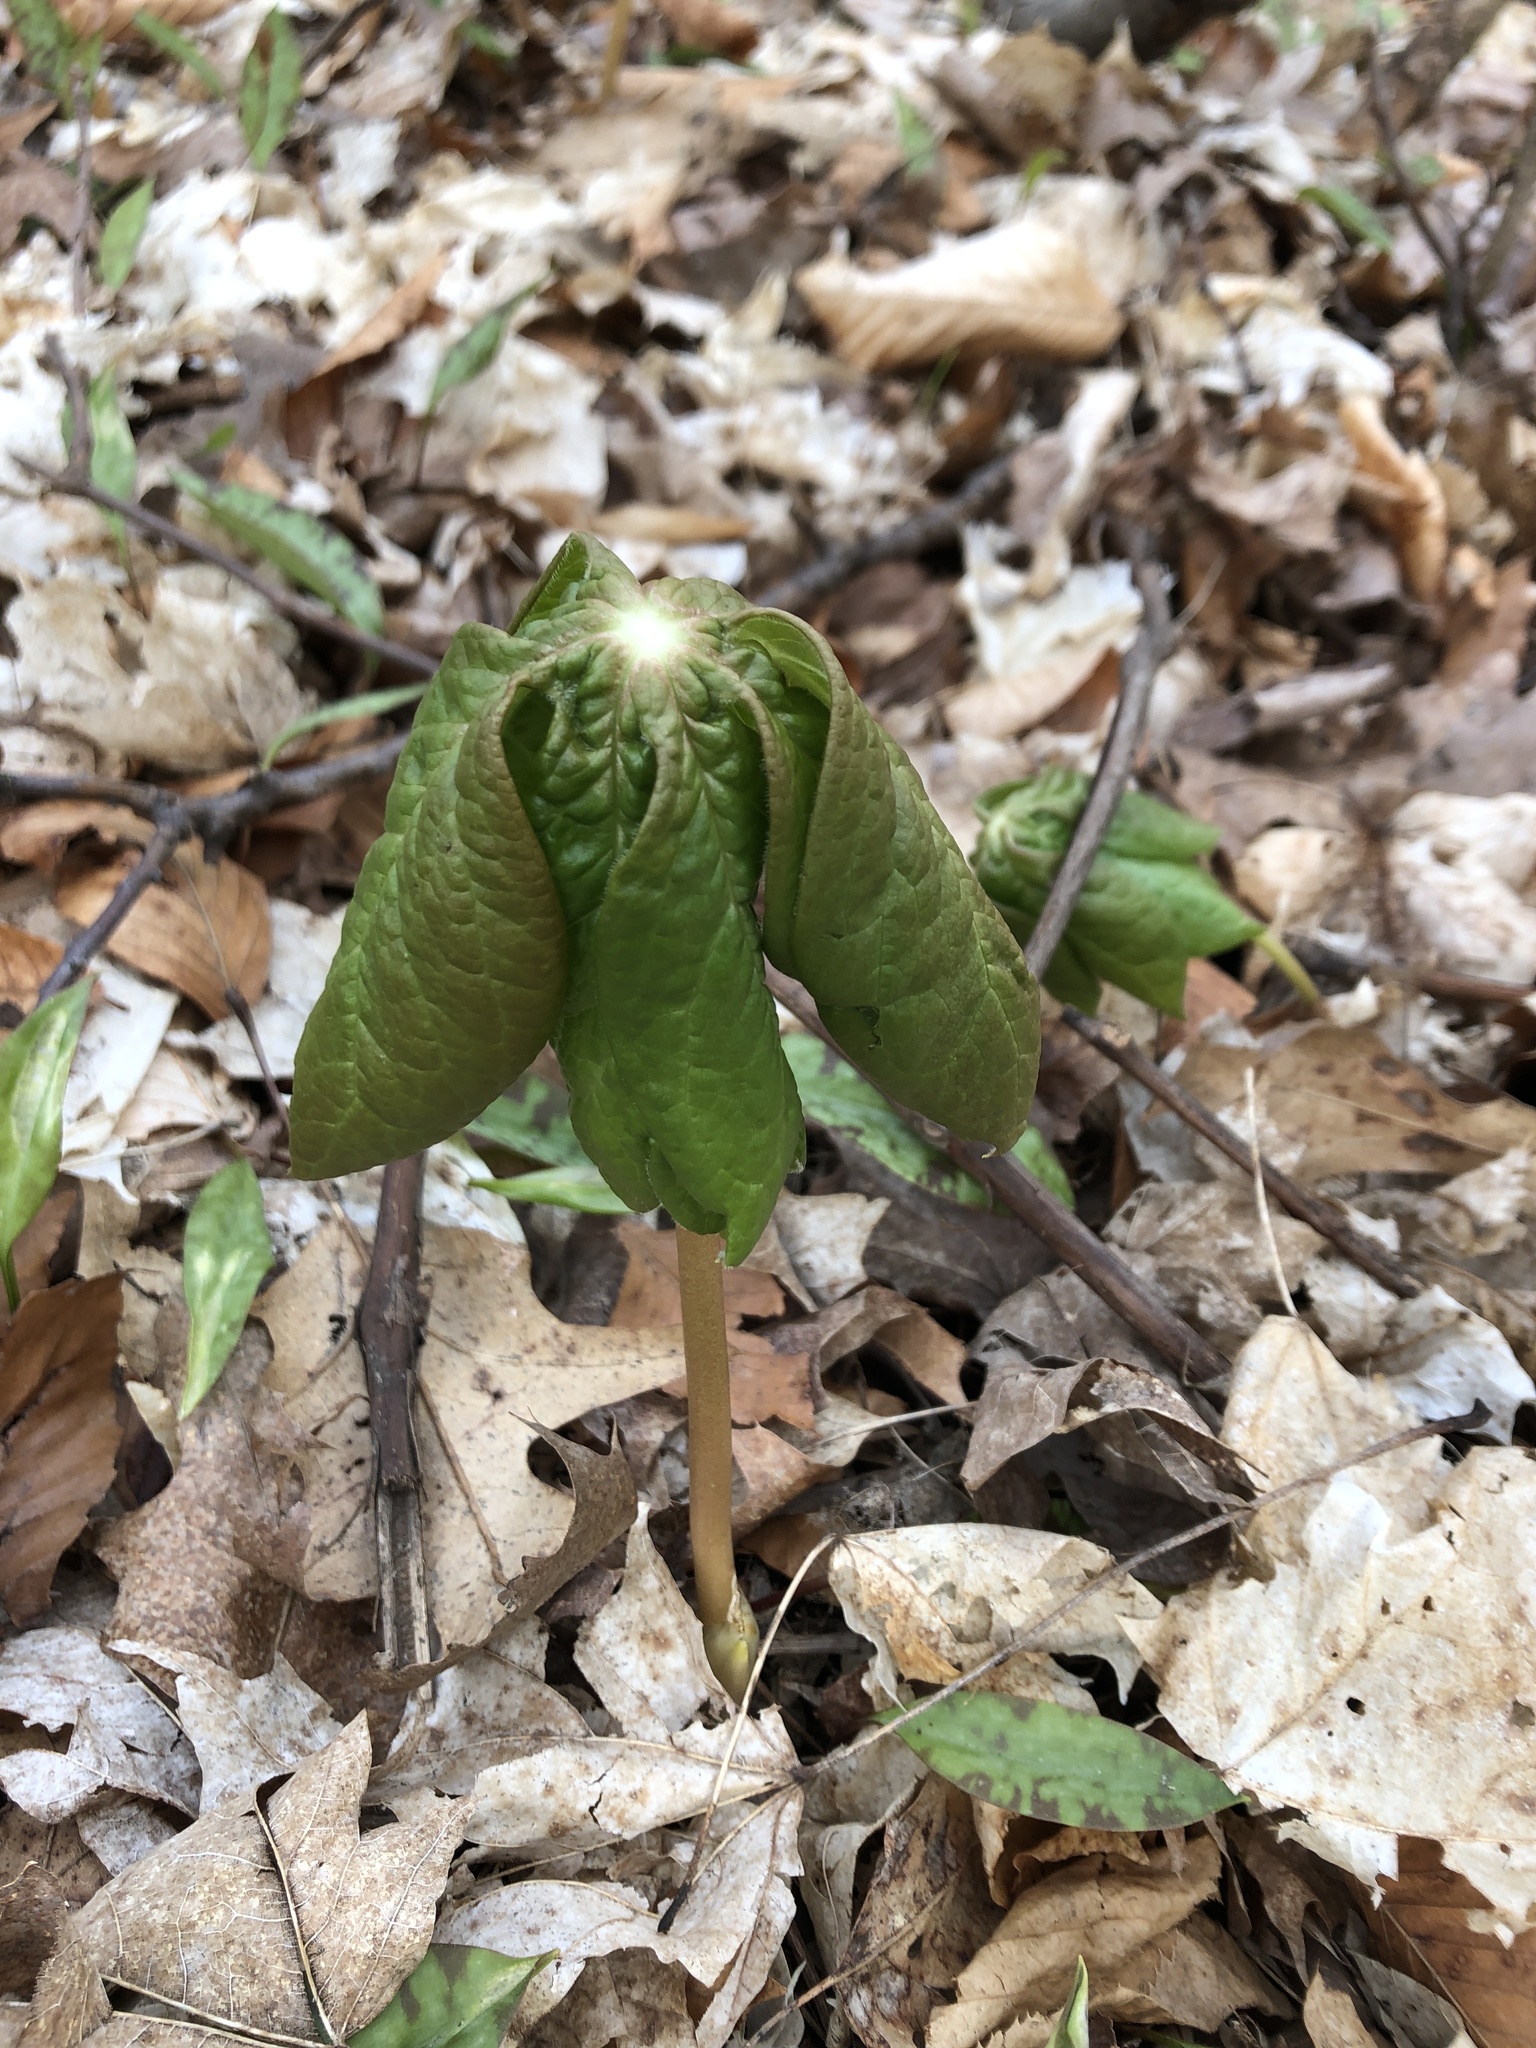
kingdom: Plantae
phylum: Tracheophyta
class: Magnoliopsida
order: Ranunculales
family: Berberidaceae
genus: Podophyllum
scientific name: Podophyllum peltatum
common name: Wild mandrake
